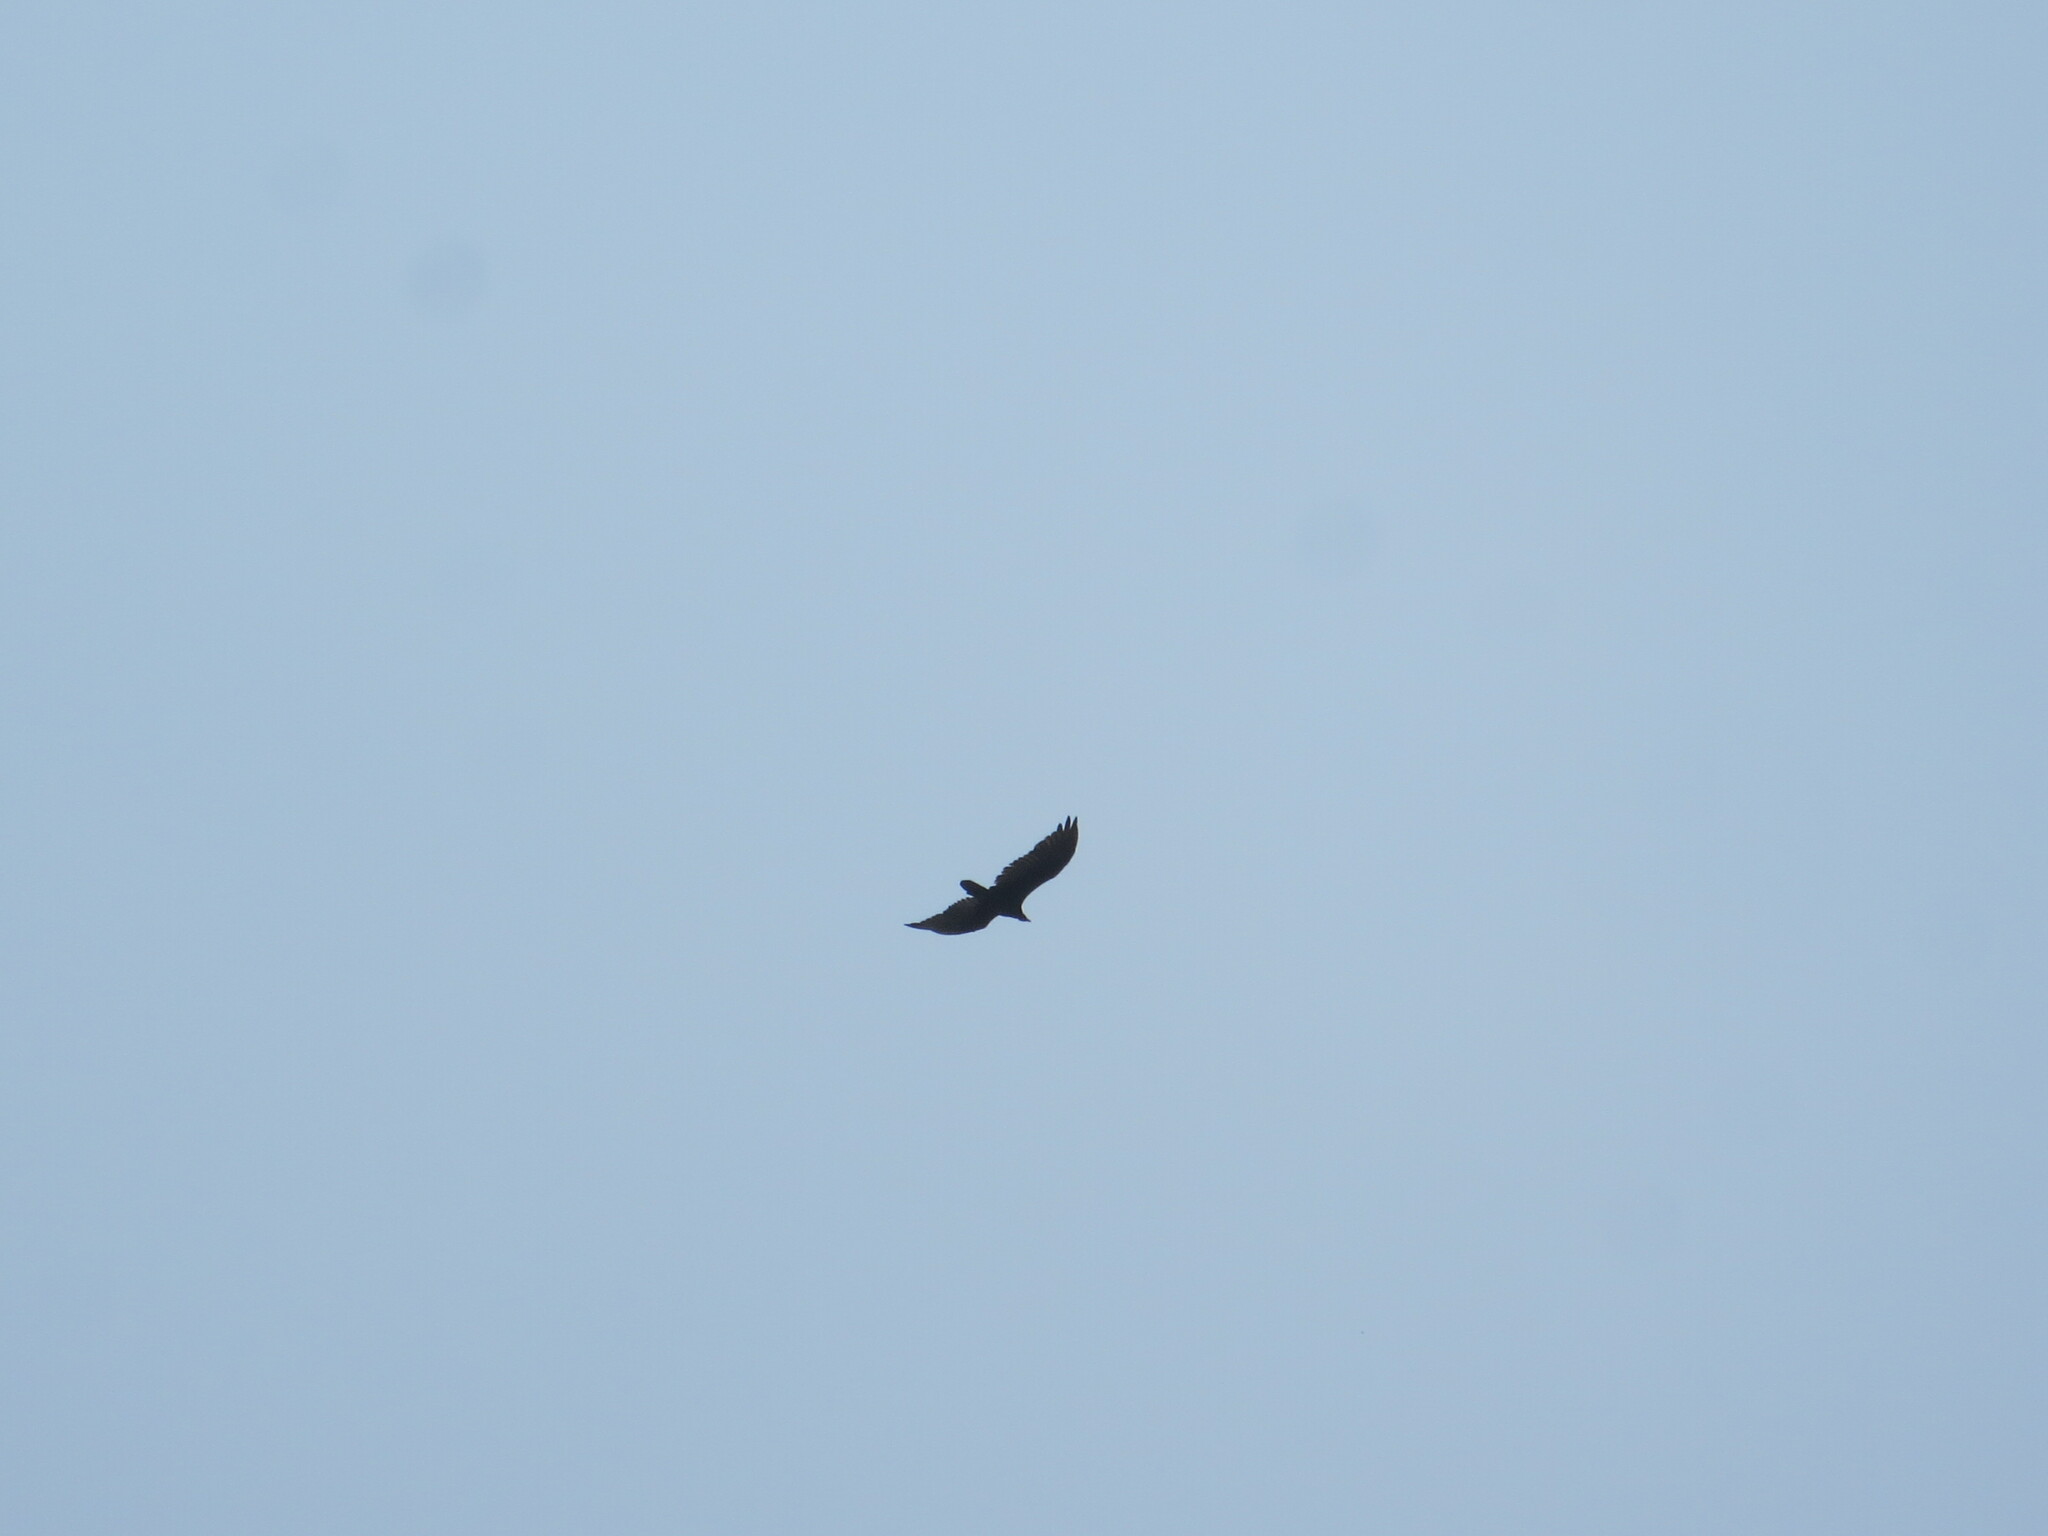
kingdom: Animalia
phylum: Chordata
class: Aves
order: Accipitriformes
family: Cathartidae
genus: Cathartes
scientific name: Cathartes aura
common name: Turkey vulture
